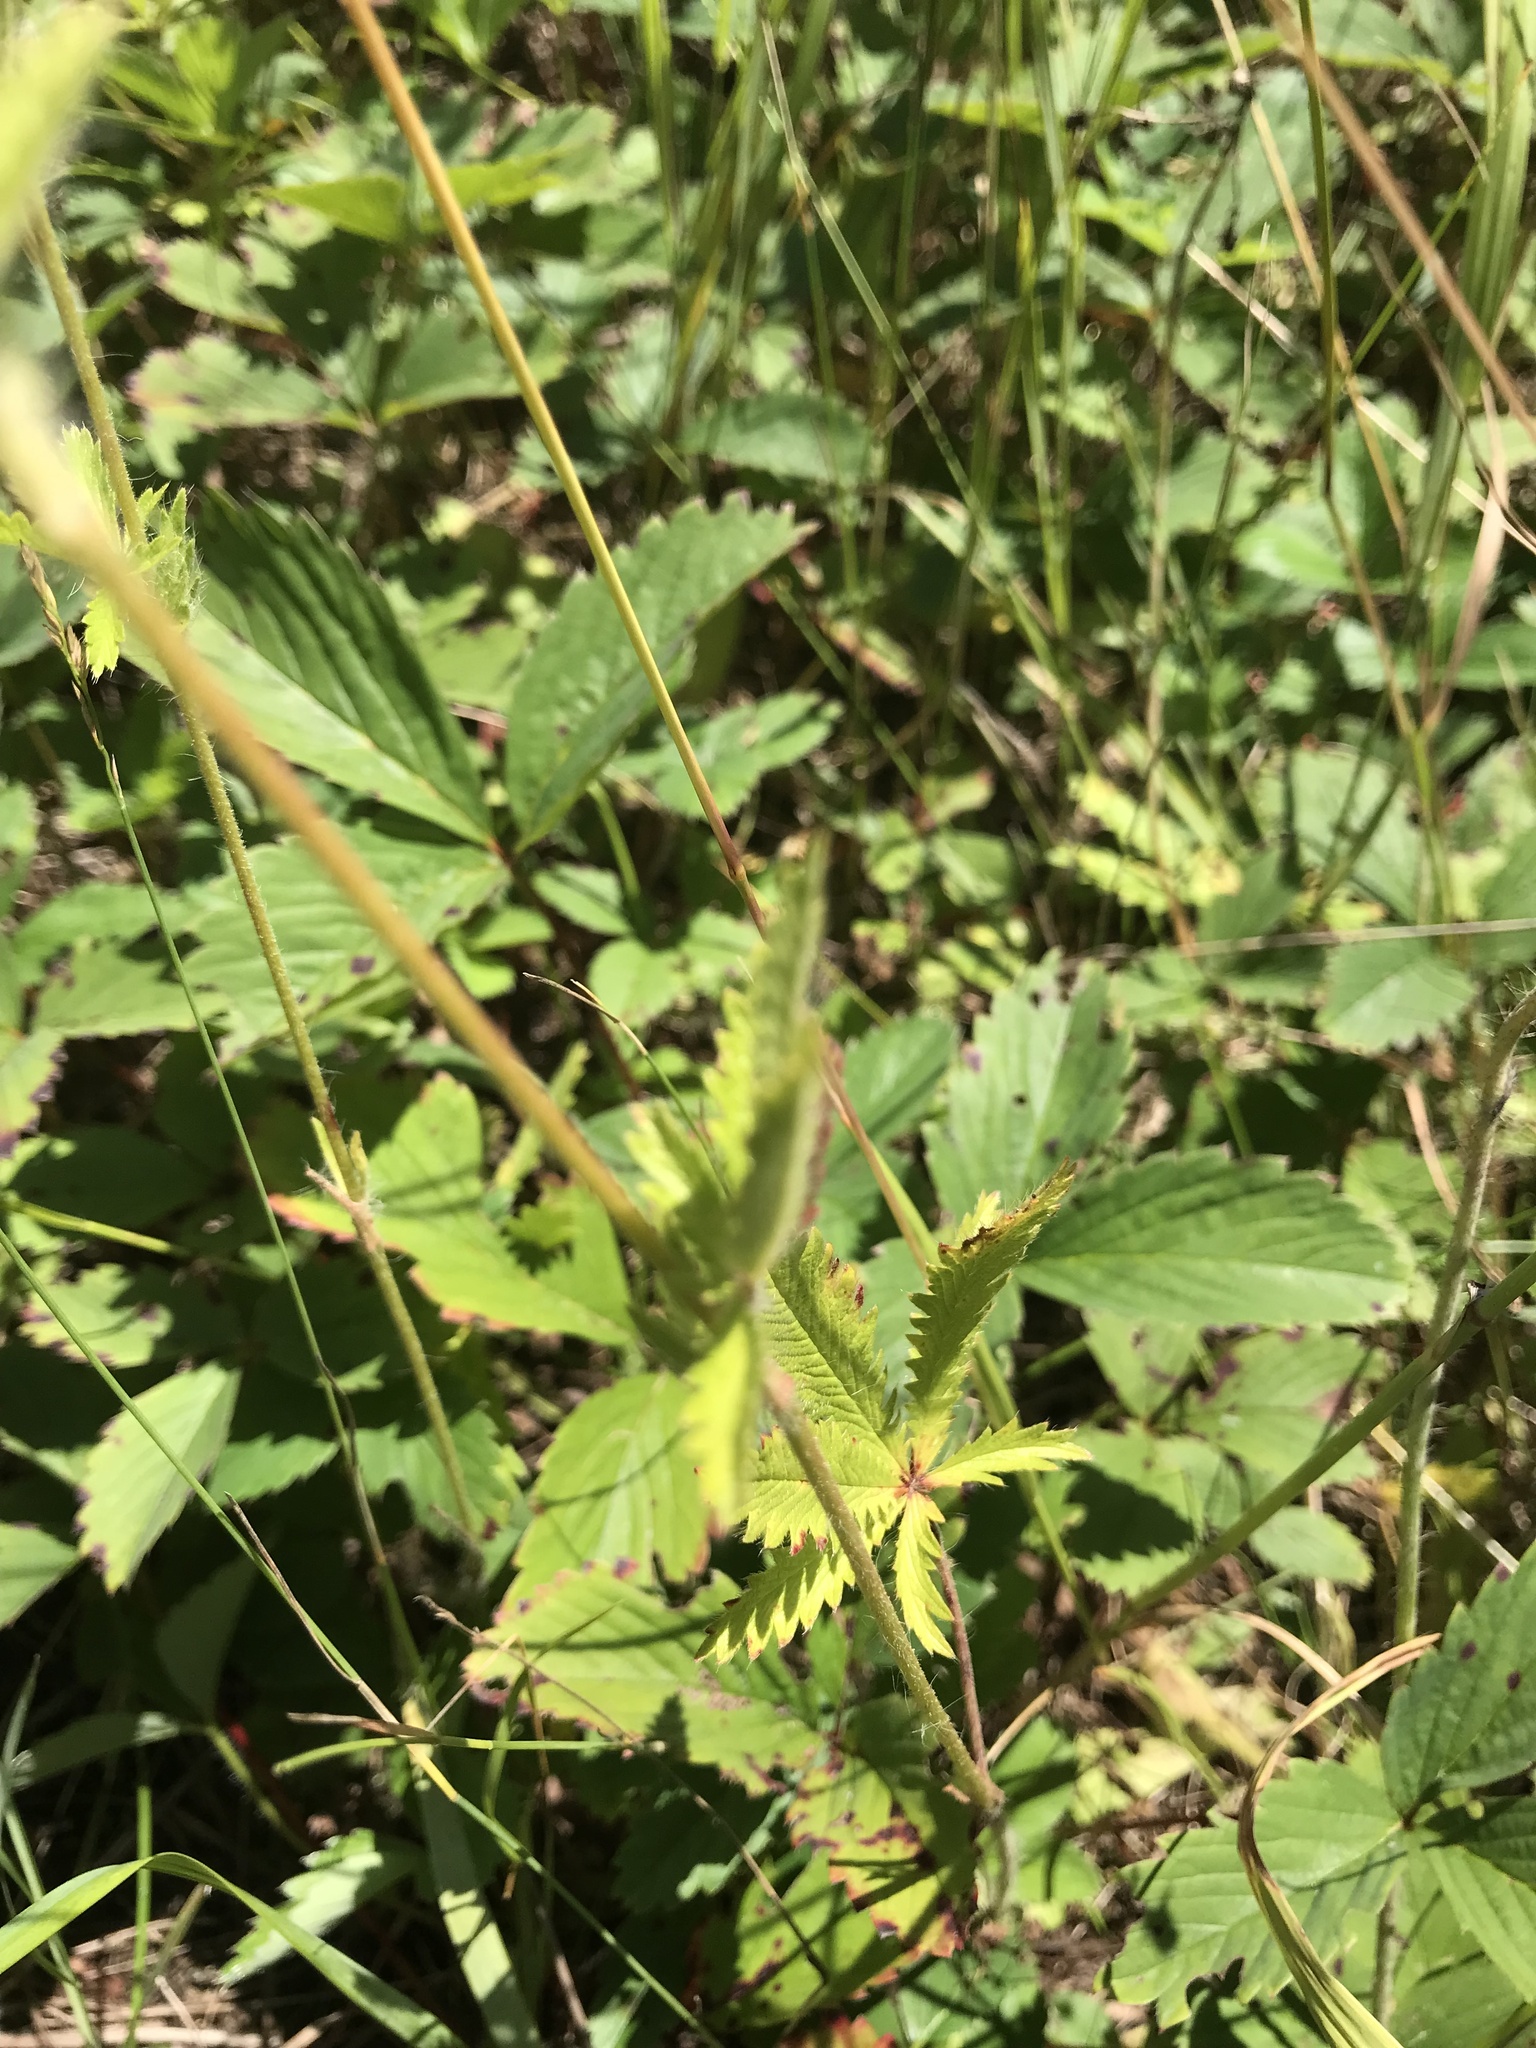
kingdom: Plantae
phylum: Tracheophyta
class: Magnoliopsida
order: Rosales
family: Rosaceae
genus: Potentilla
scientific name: Potentilla recta
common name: Sulphur cinquefoil
